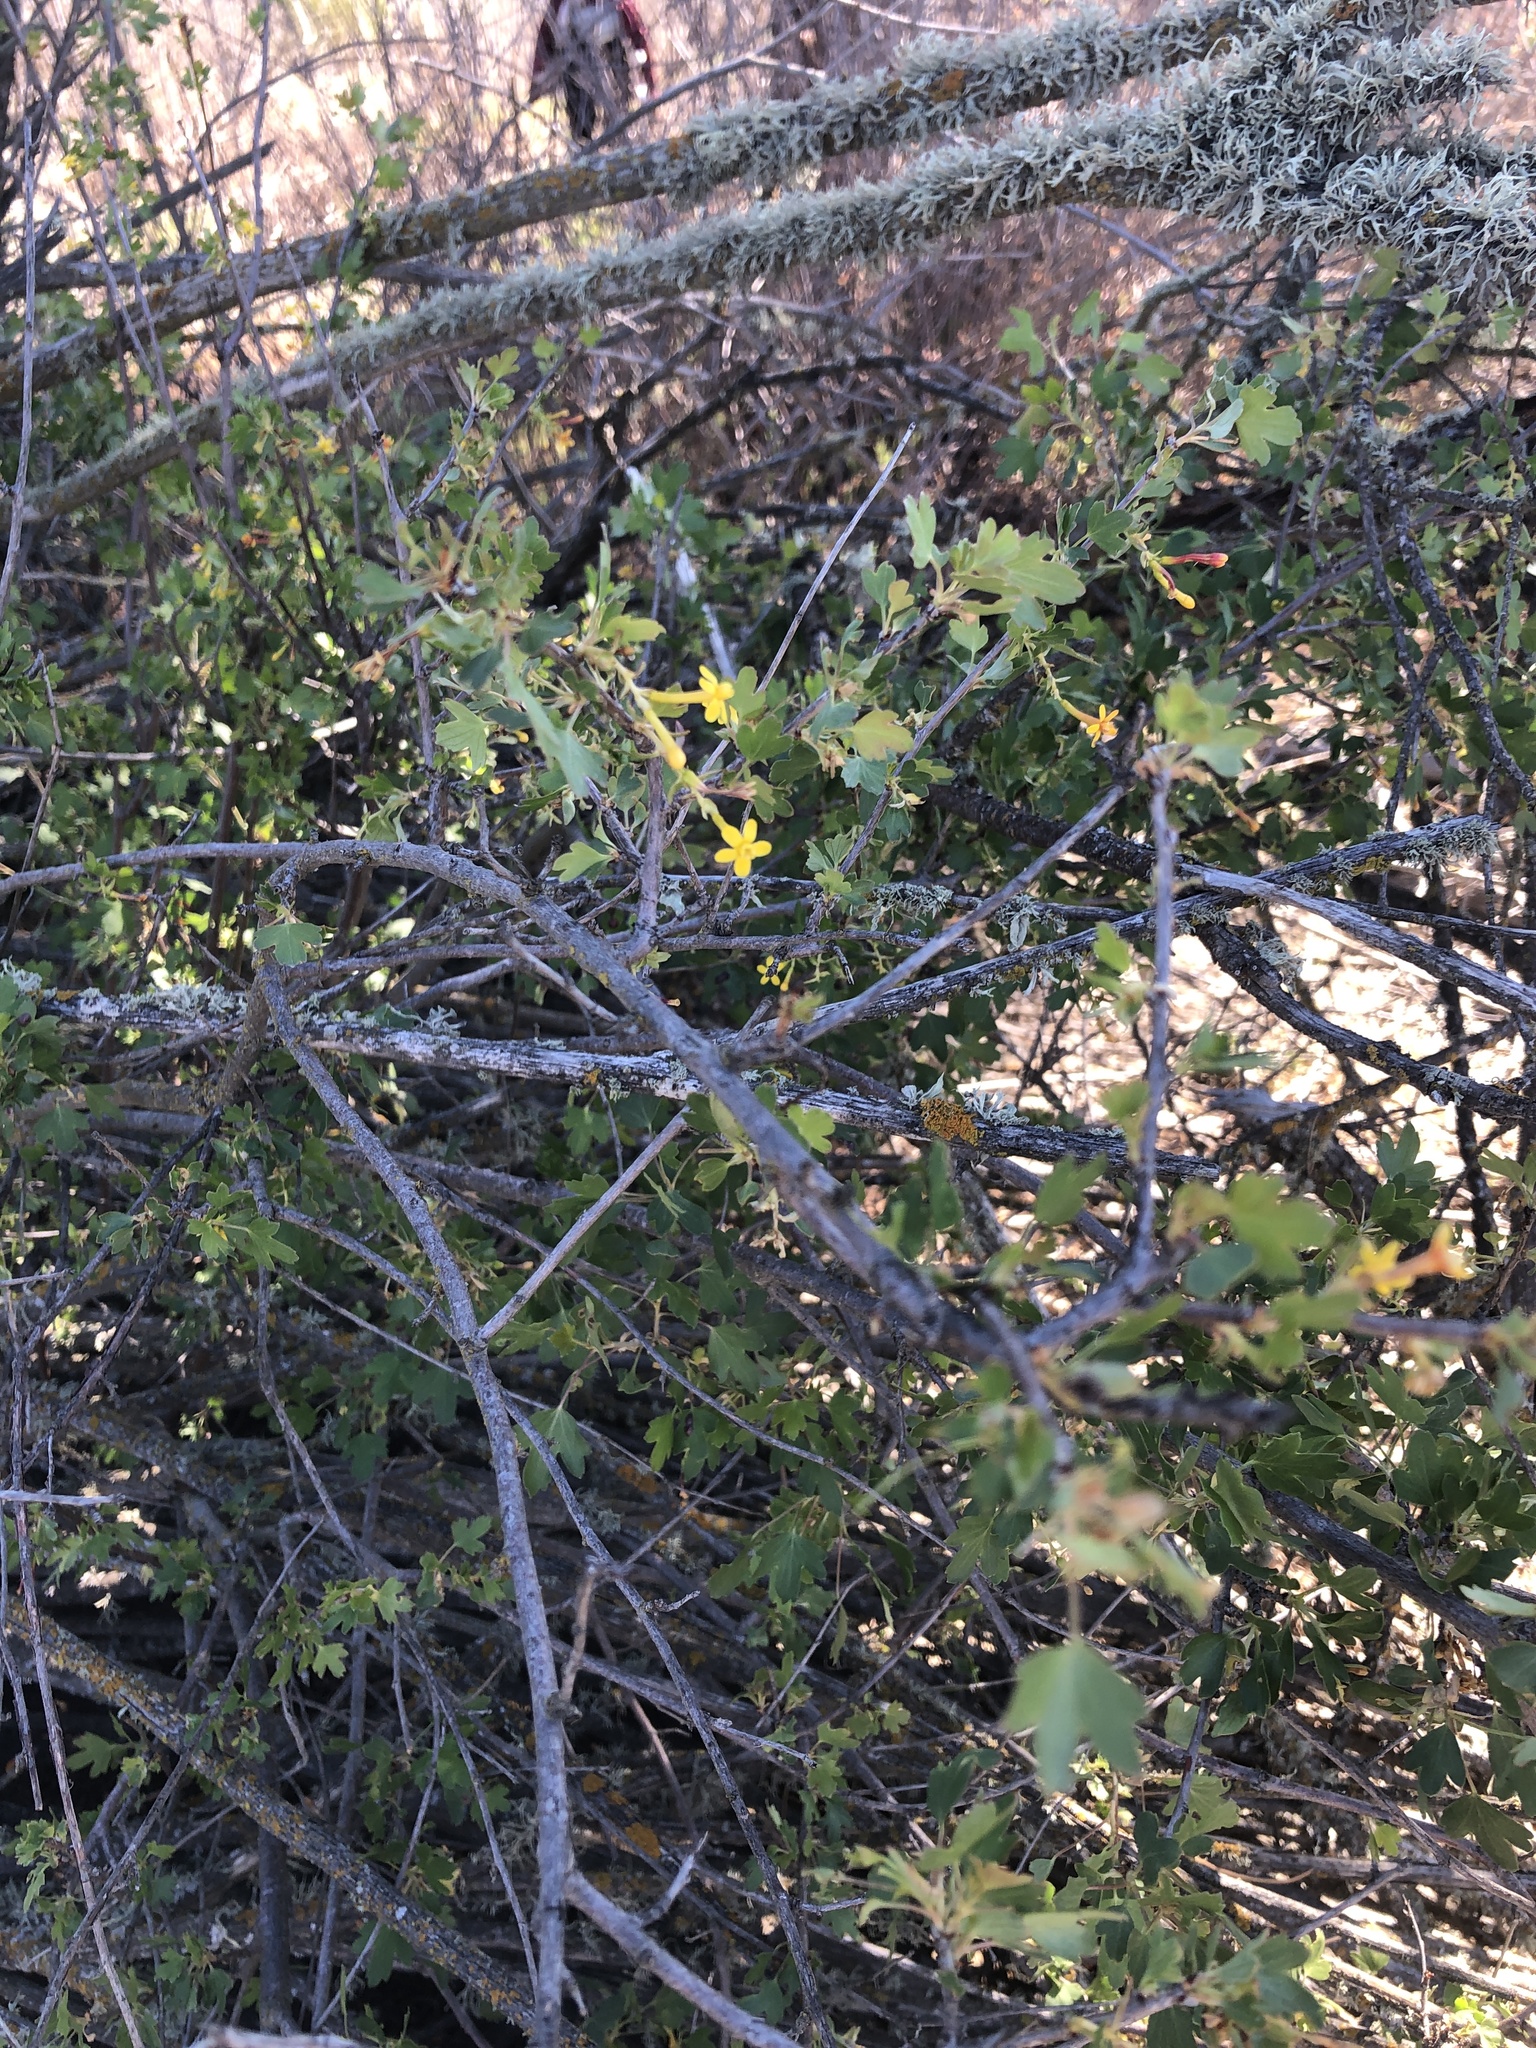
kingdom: Plantae
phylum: Tracheophyta
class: Magnoliopsida
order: Saxifragales
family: Grossulariaceae
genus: Ribes
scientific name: Ribes aureum
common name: Golden currant
